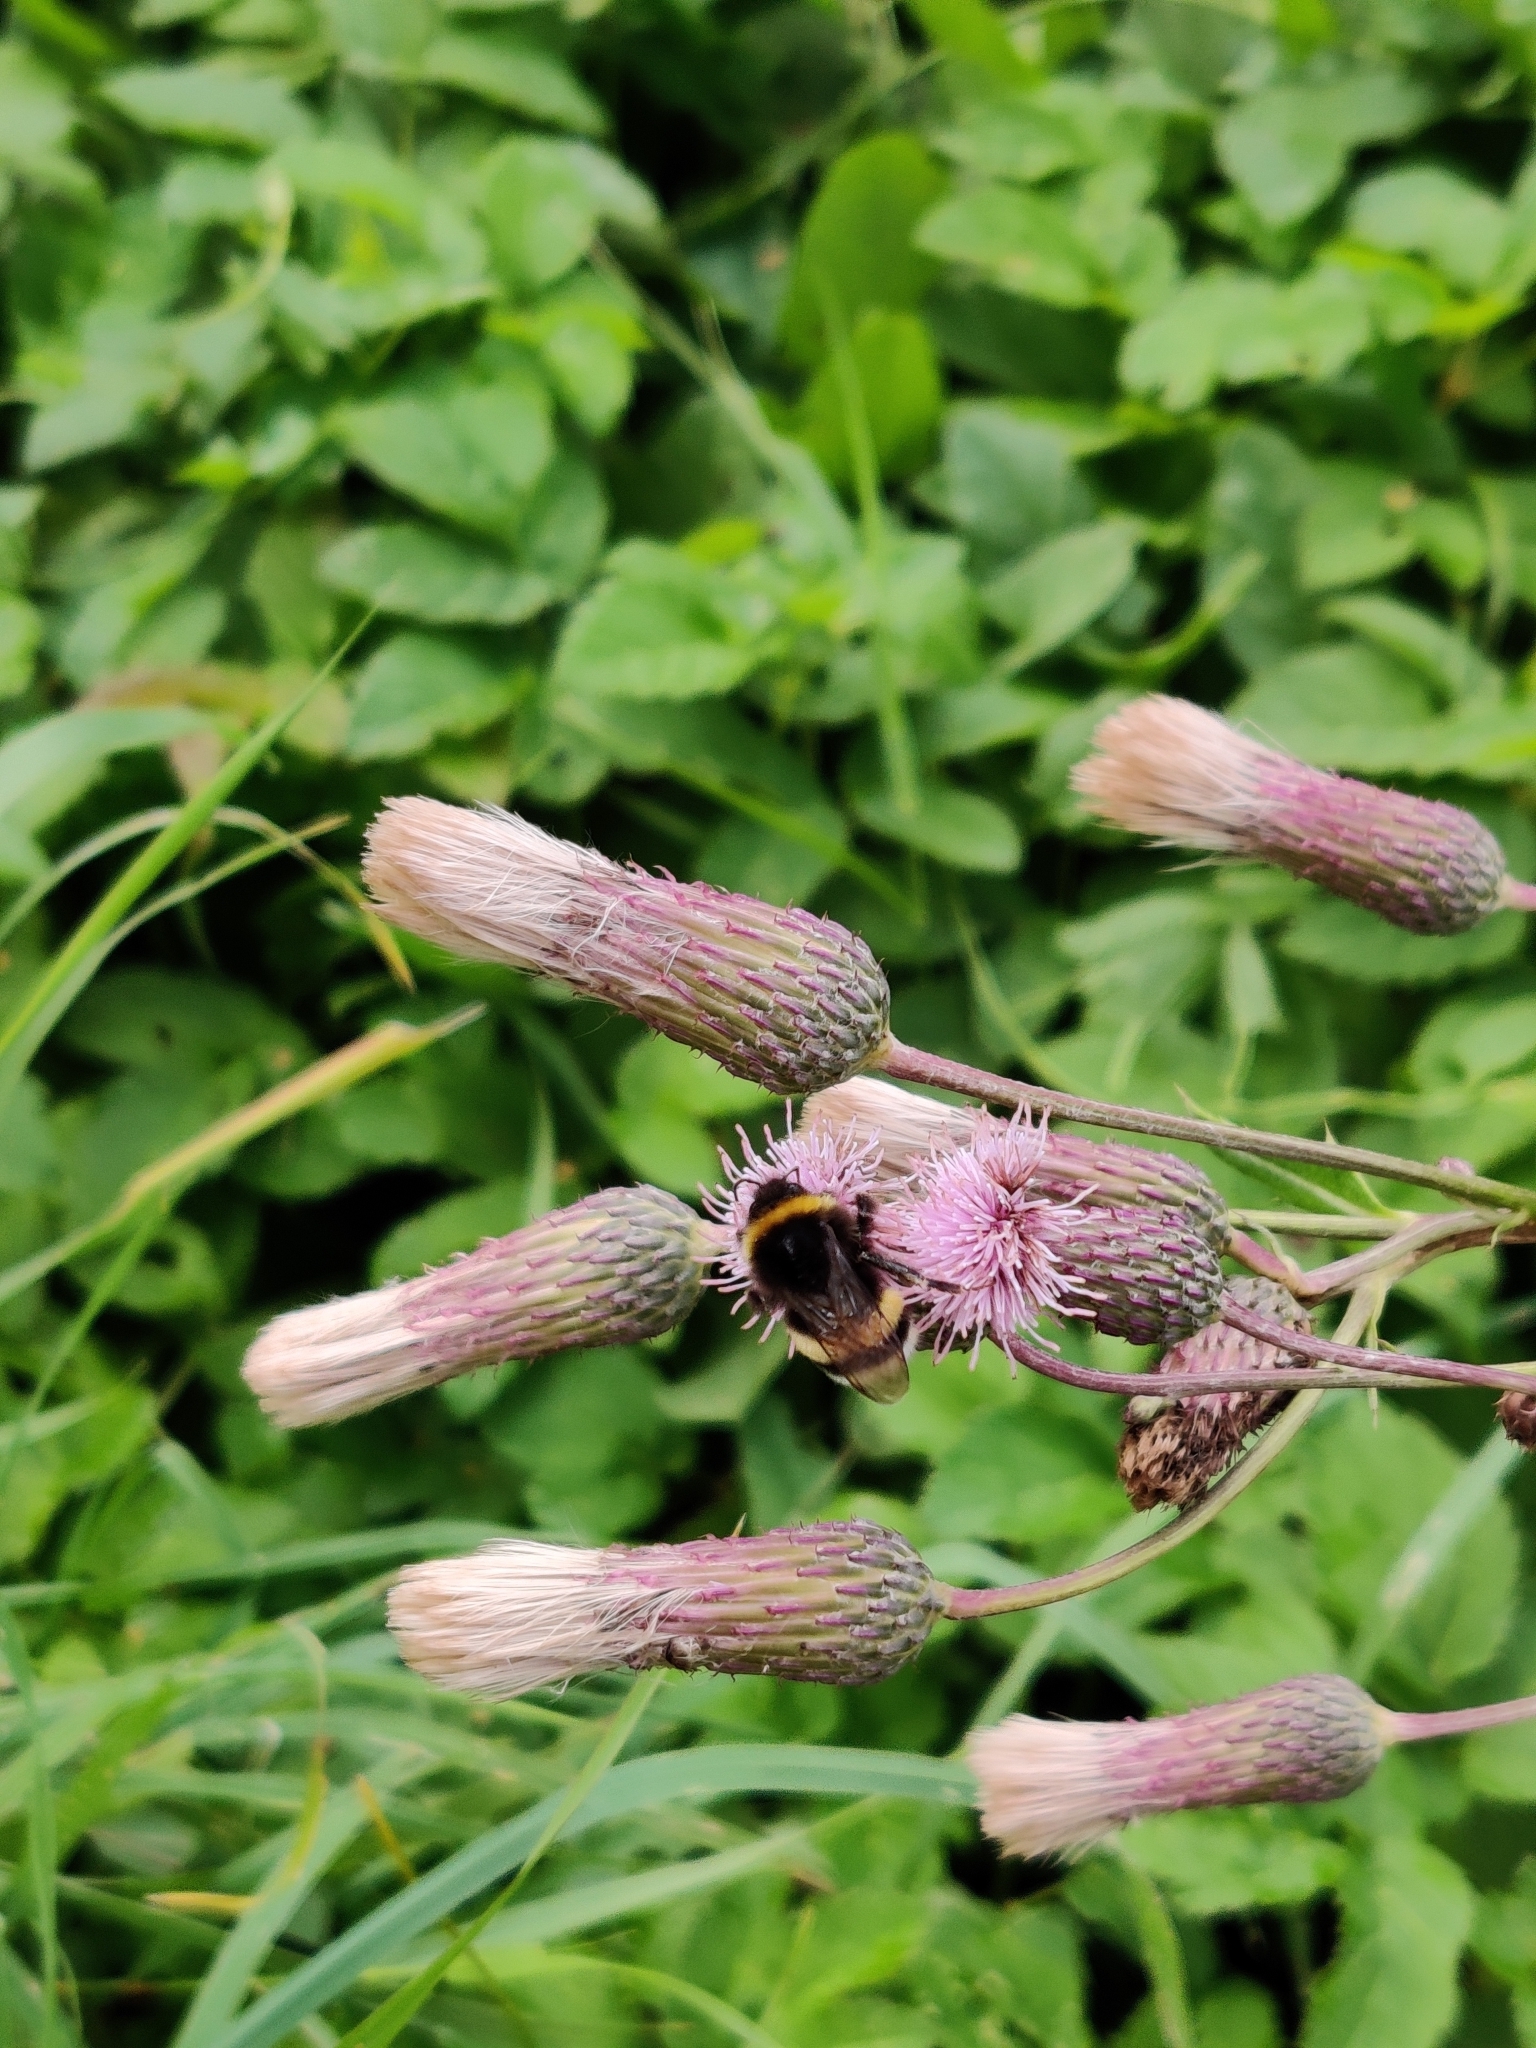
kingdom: Animalia
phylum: Arthropoda
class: Insecta
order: Hymenoptera
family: Apidae
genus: Bombus
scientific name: Bombus
